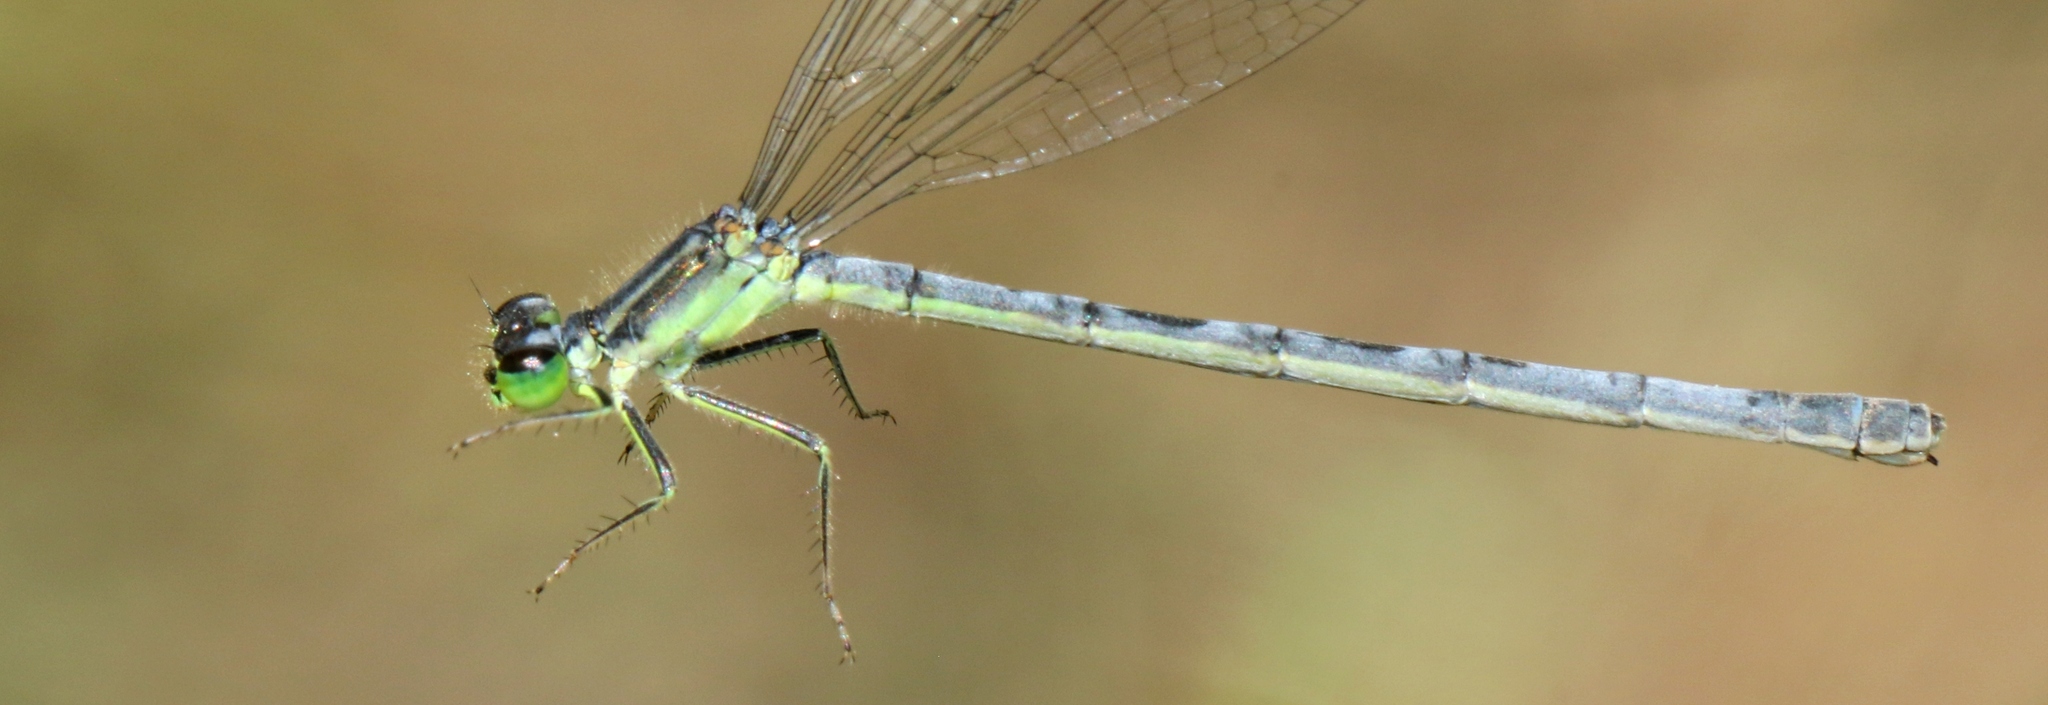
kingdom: Animalia
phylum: Arthropoda
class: Insecta
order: Odonata
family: Coenagrionidae
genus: Ischnura
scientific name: Ischnura verticalis
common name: Eastern forktail
